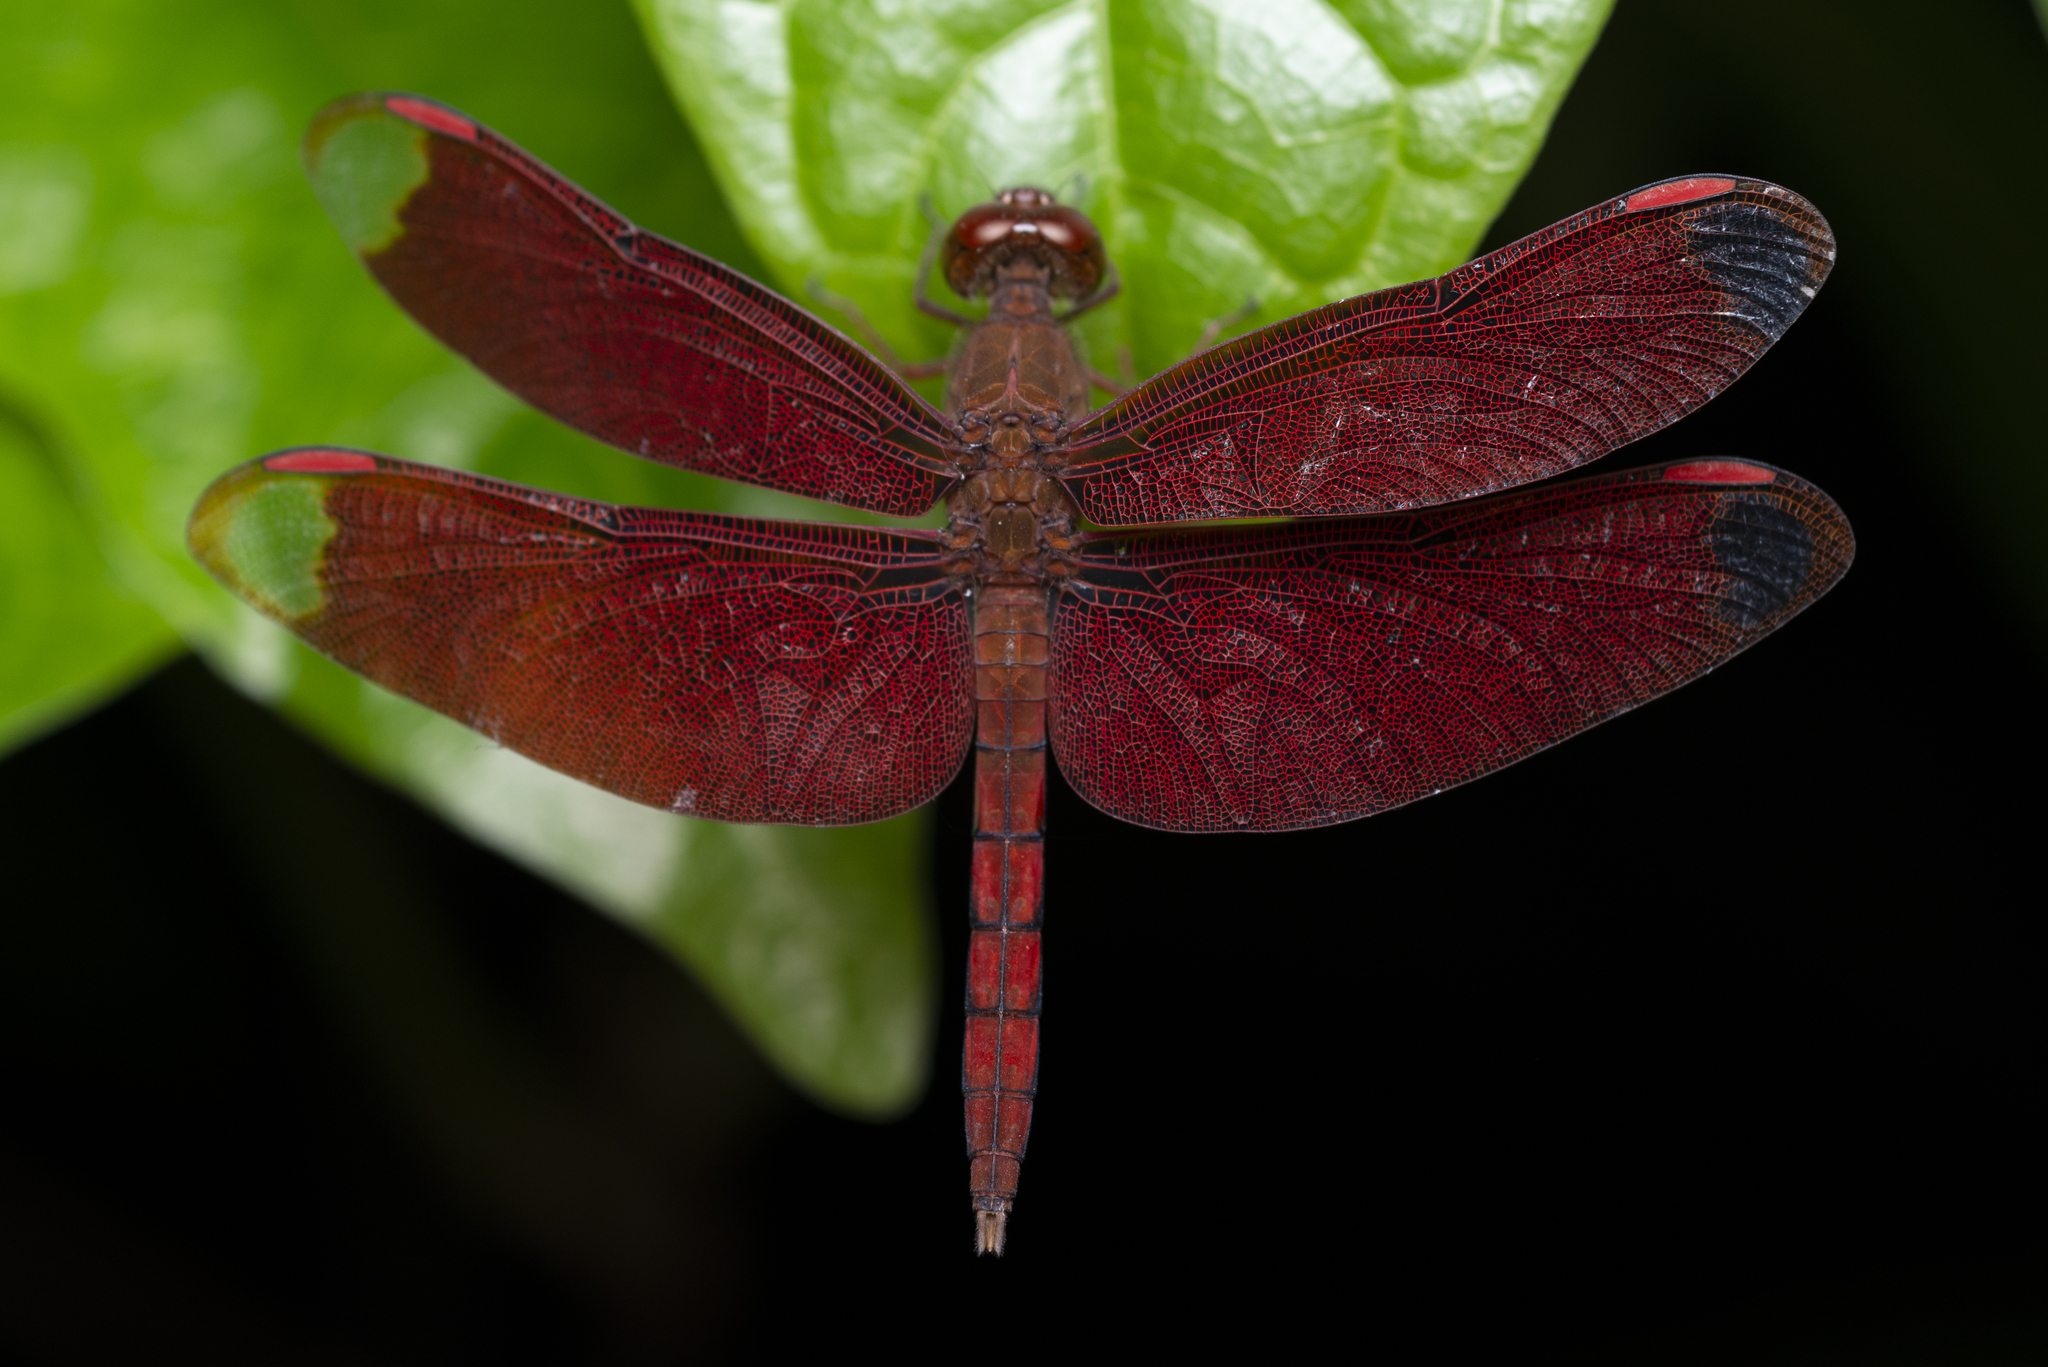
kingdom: Animalia
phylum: Arthropoda
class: Insecta
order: Odonata
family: Libellulidae
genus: Neurothemis
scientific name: Neurothemis fulvia
